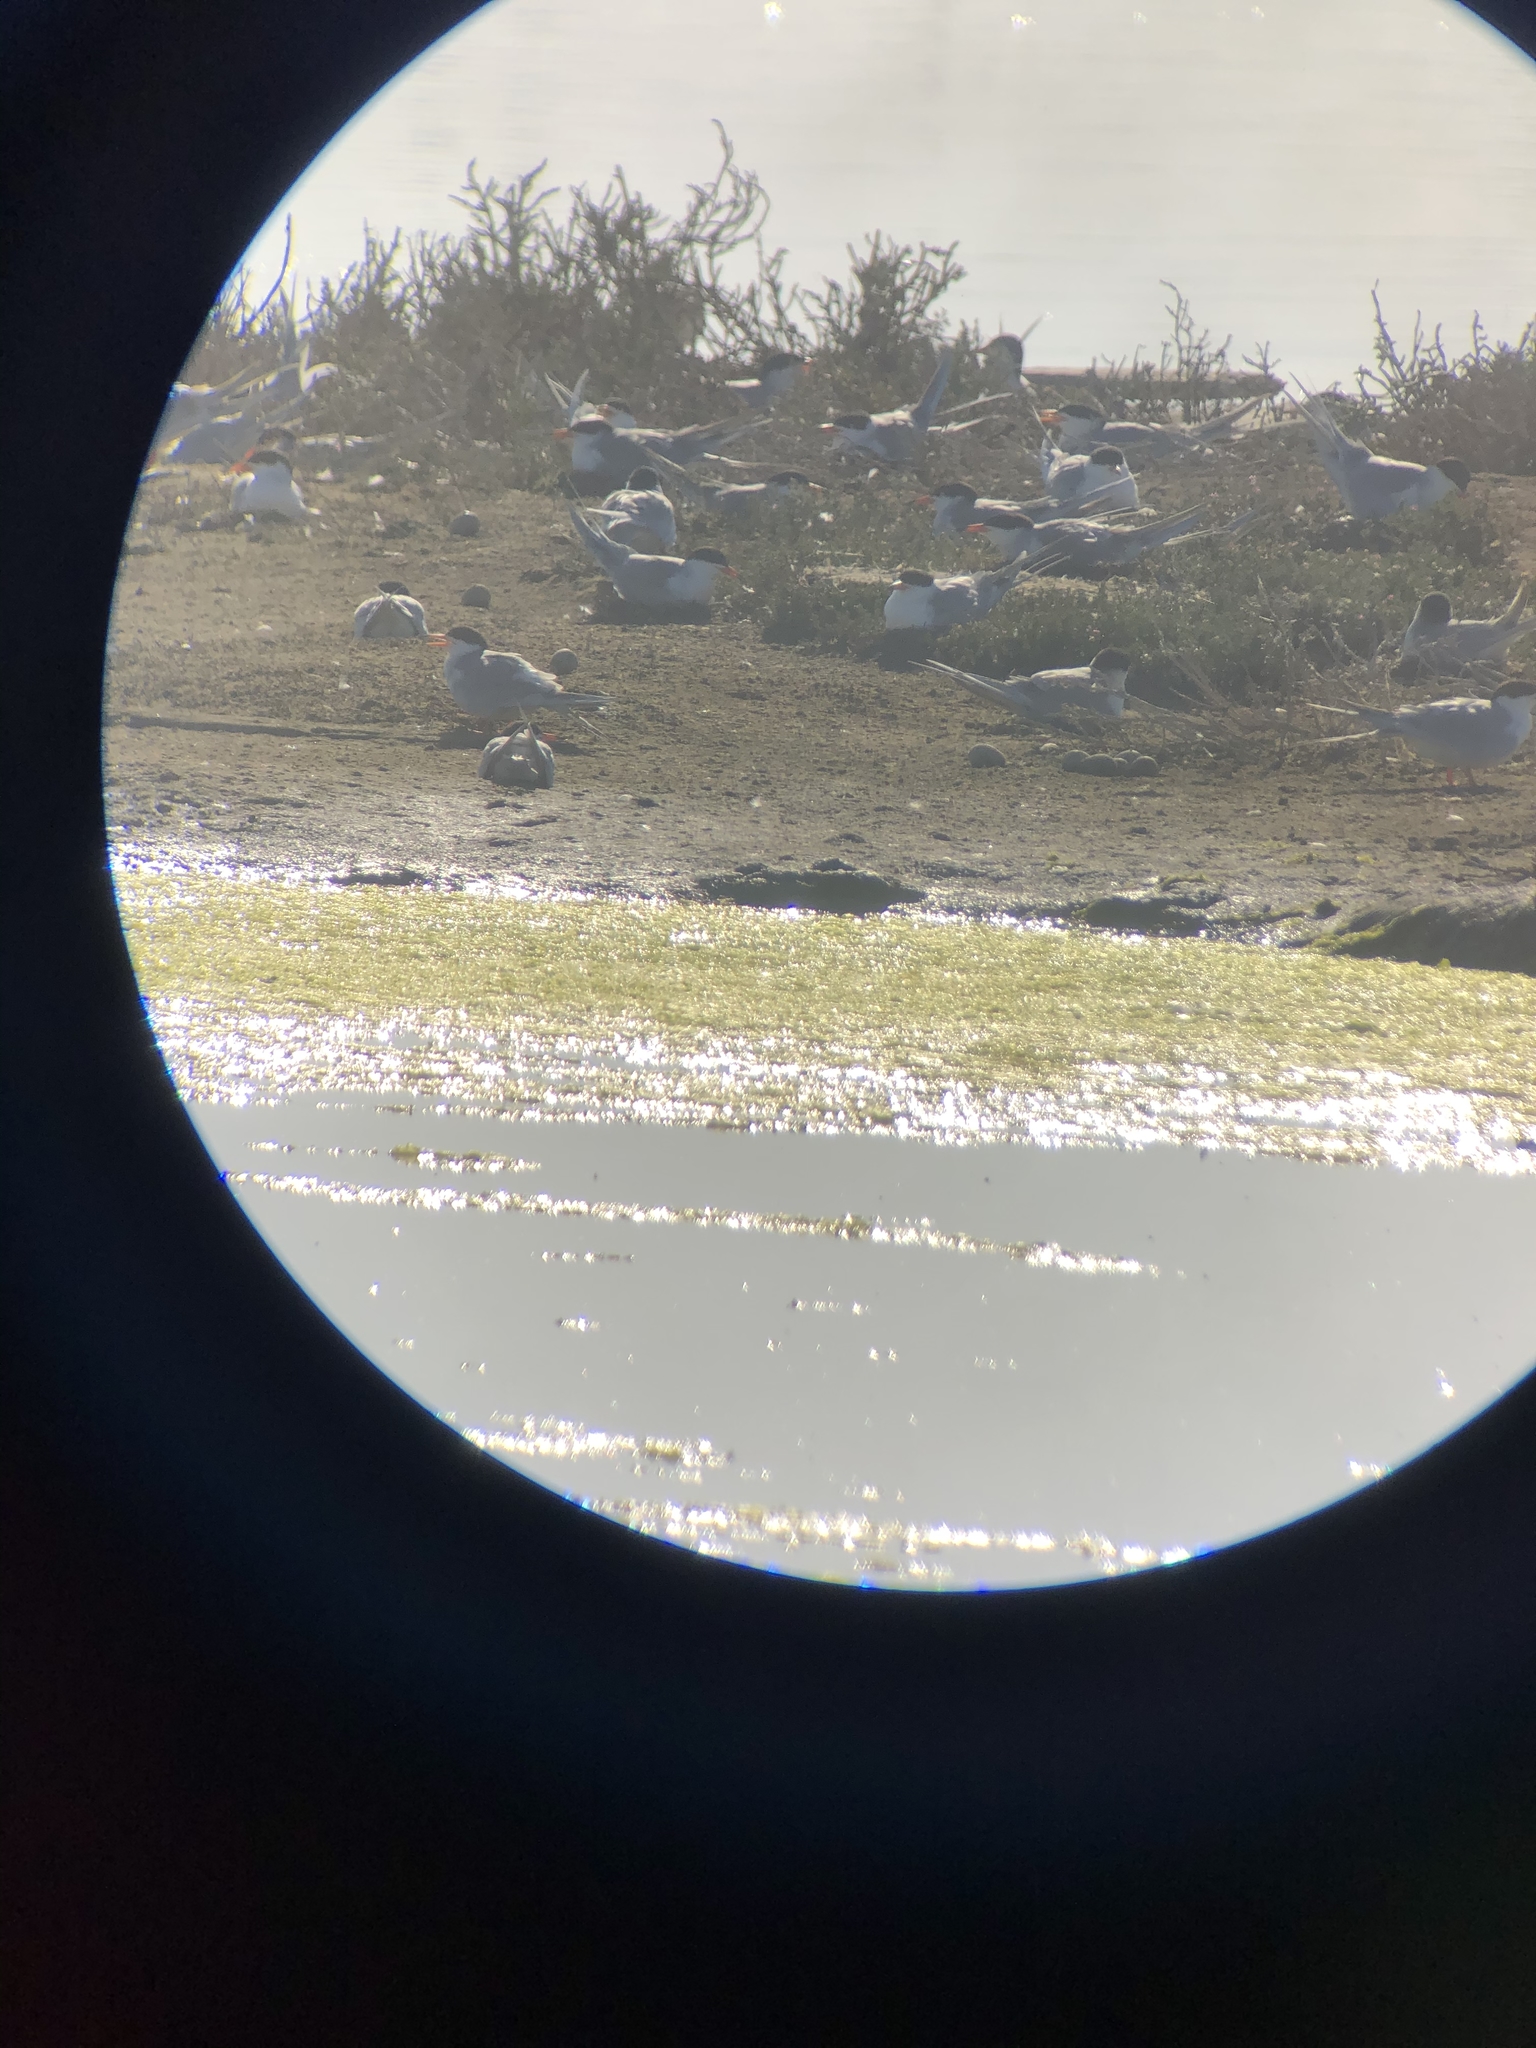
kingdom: Animalia
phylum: Chordata
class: Aves
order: Charadriiformes
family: Laridae
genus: Sterna
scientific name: Sterna forsteri
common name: Forster's tern
